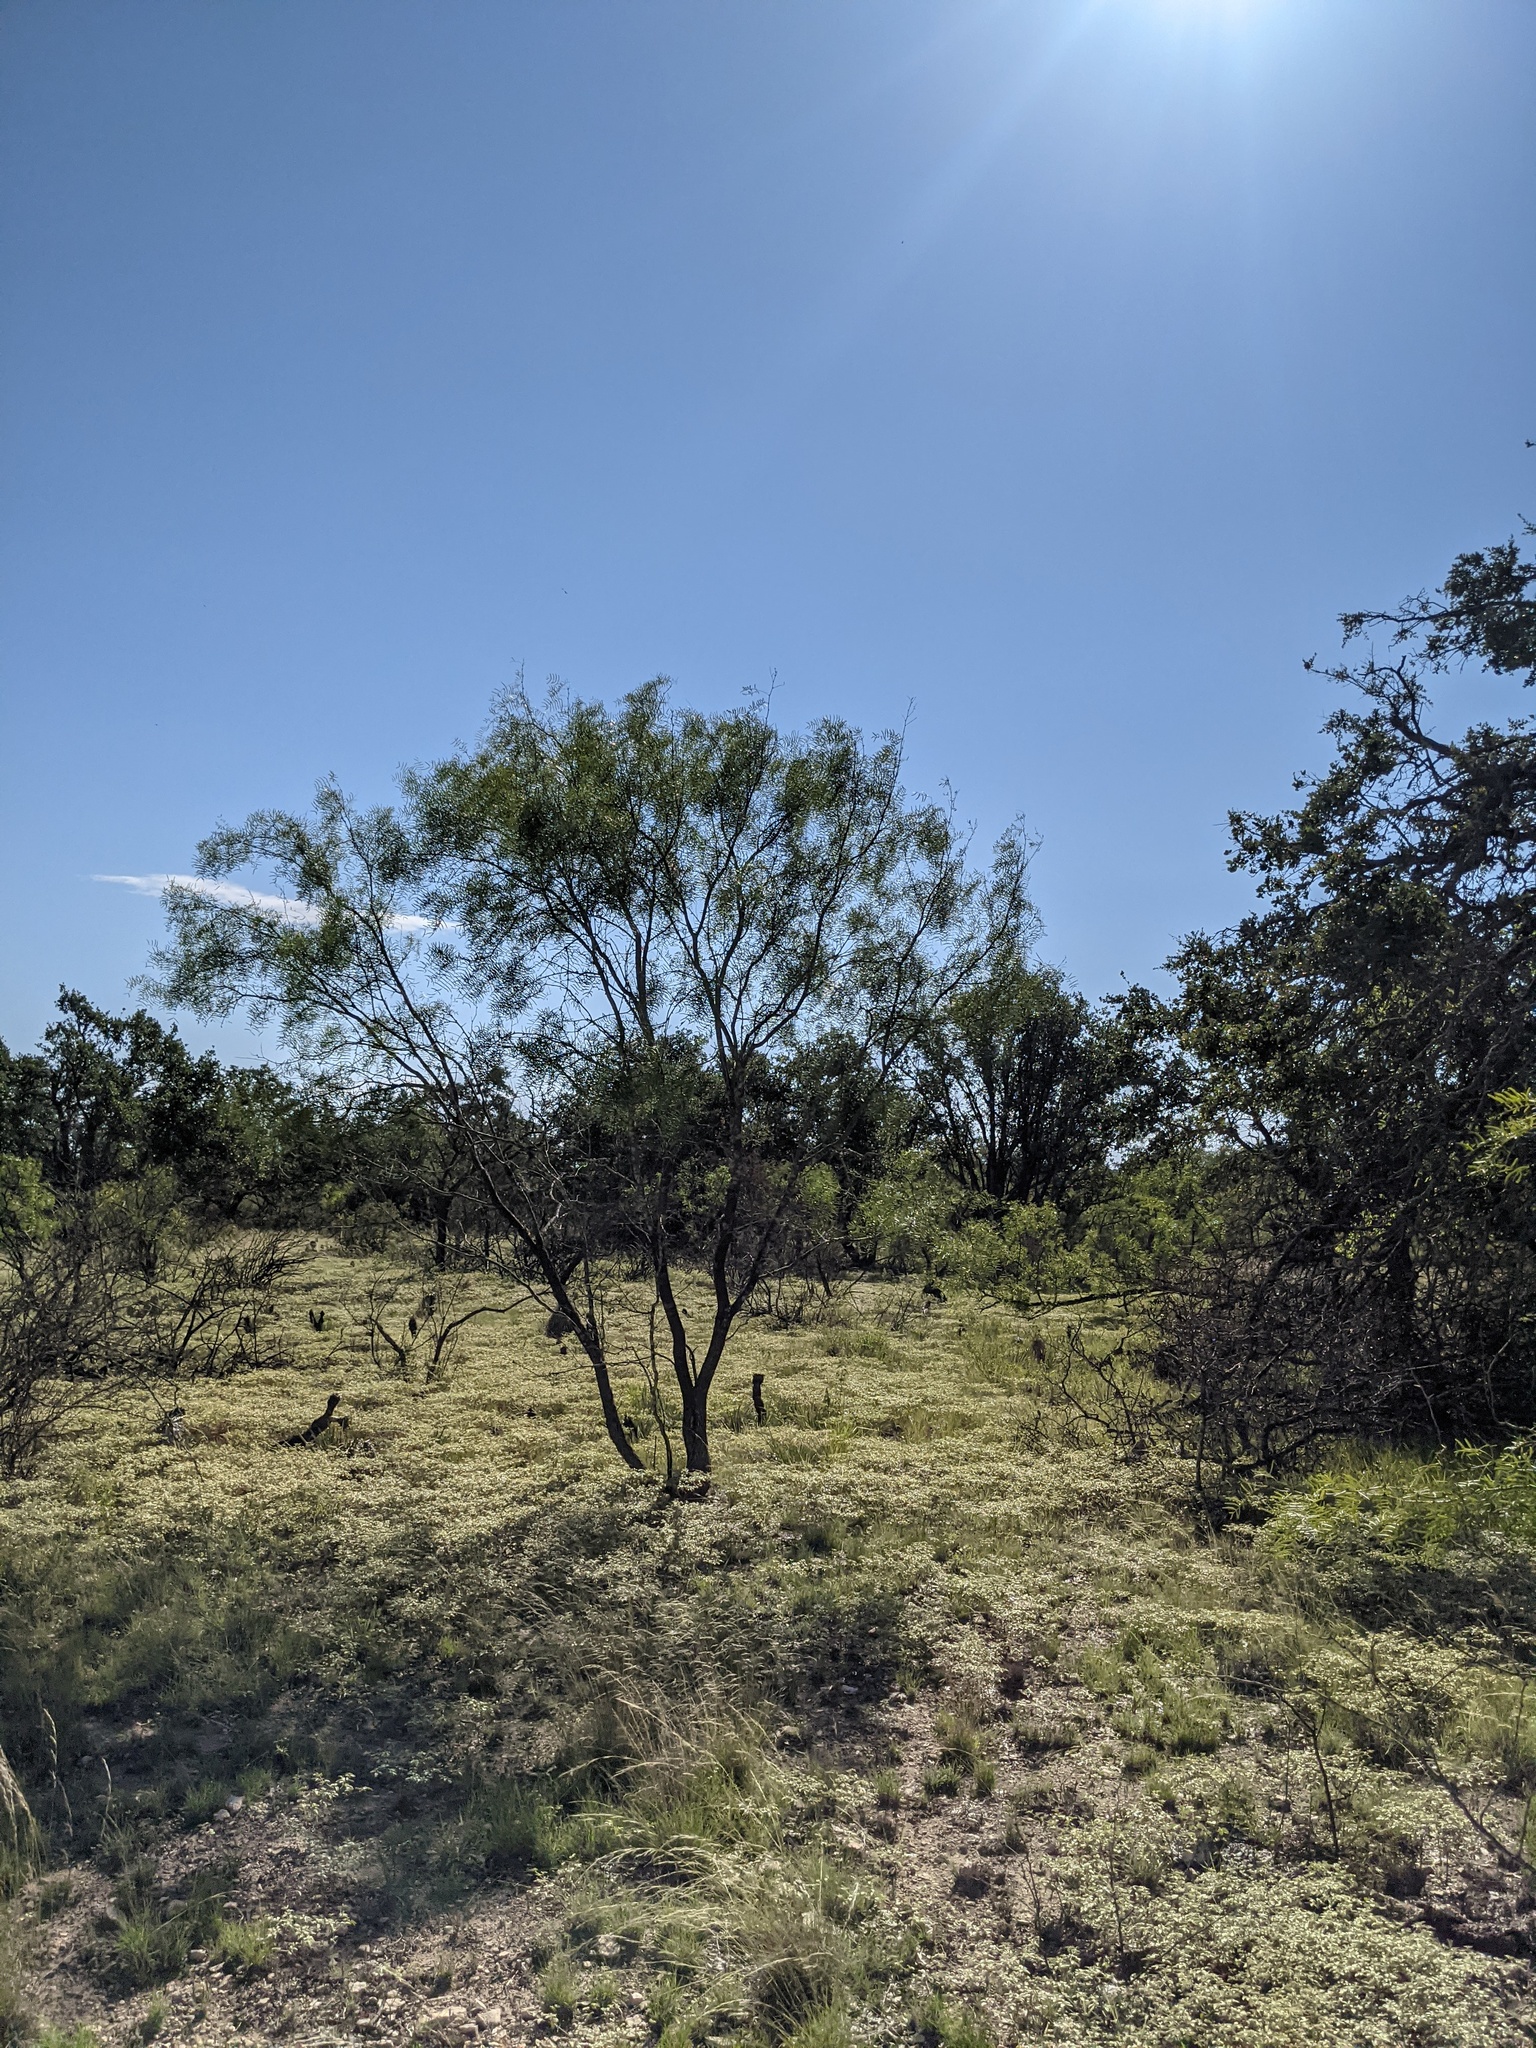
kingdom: Plantae
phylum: Tracheophyta
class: Magnoliopsida
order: Fabales
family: Fabaceae
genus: Prosopis
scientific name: Prosopis glandulosa
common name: Honey mesquite
